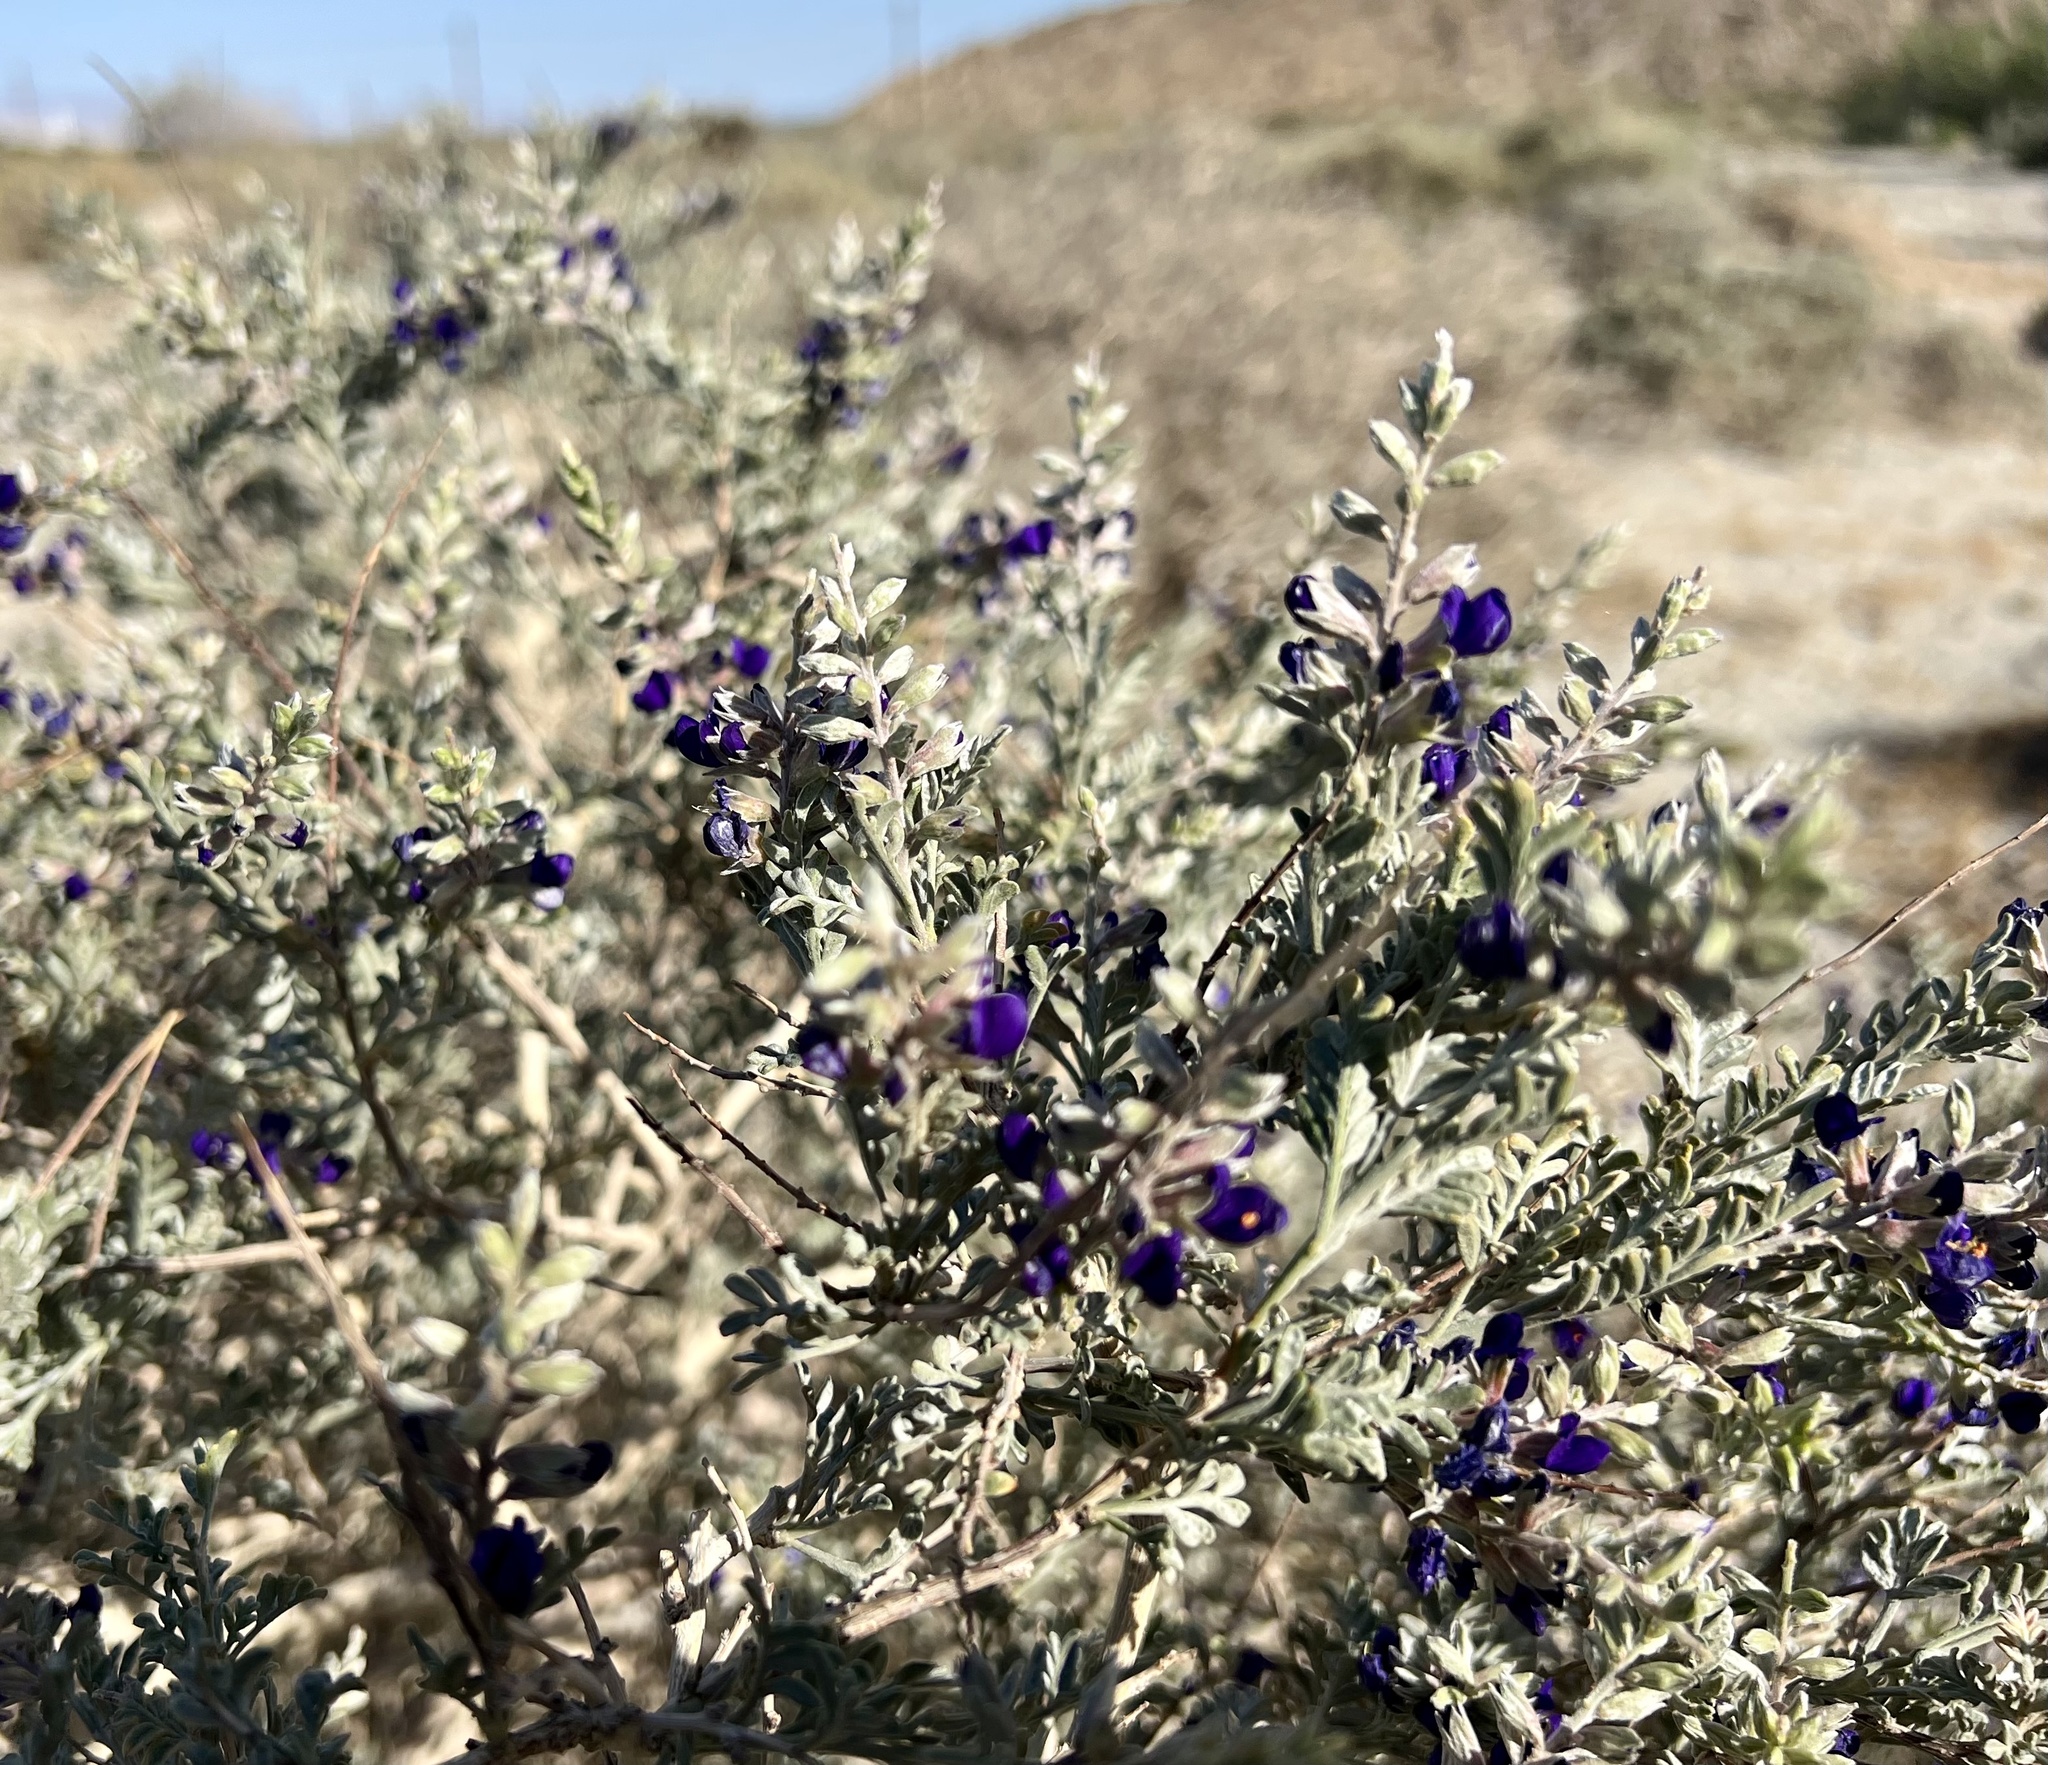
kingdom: Plantae
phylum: Tracheophyta
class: Magnoliopsida
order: Fabales
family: Fabaceae
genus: Psorothamnus
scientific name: Psorothamnus arborescens
